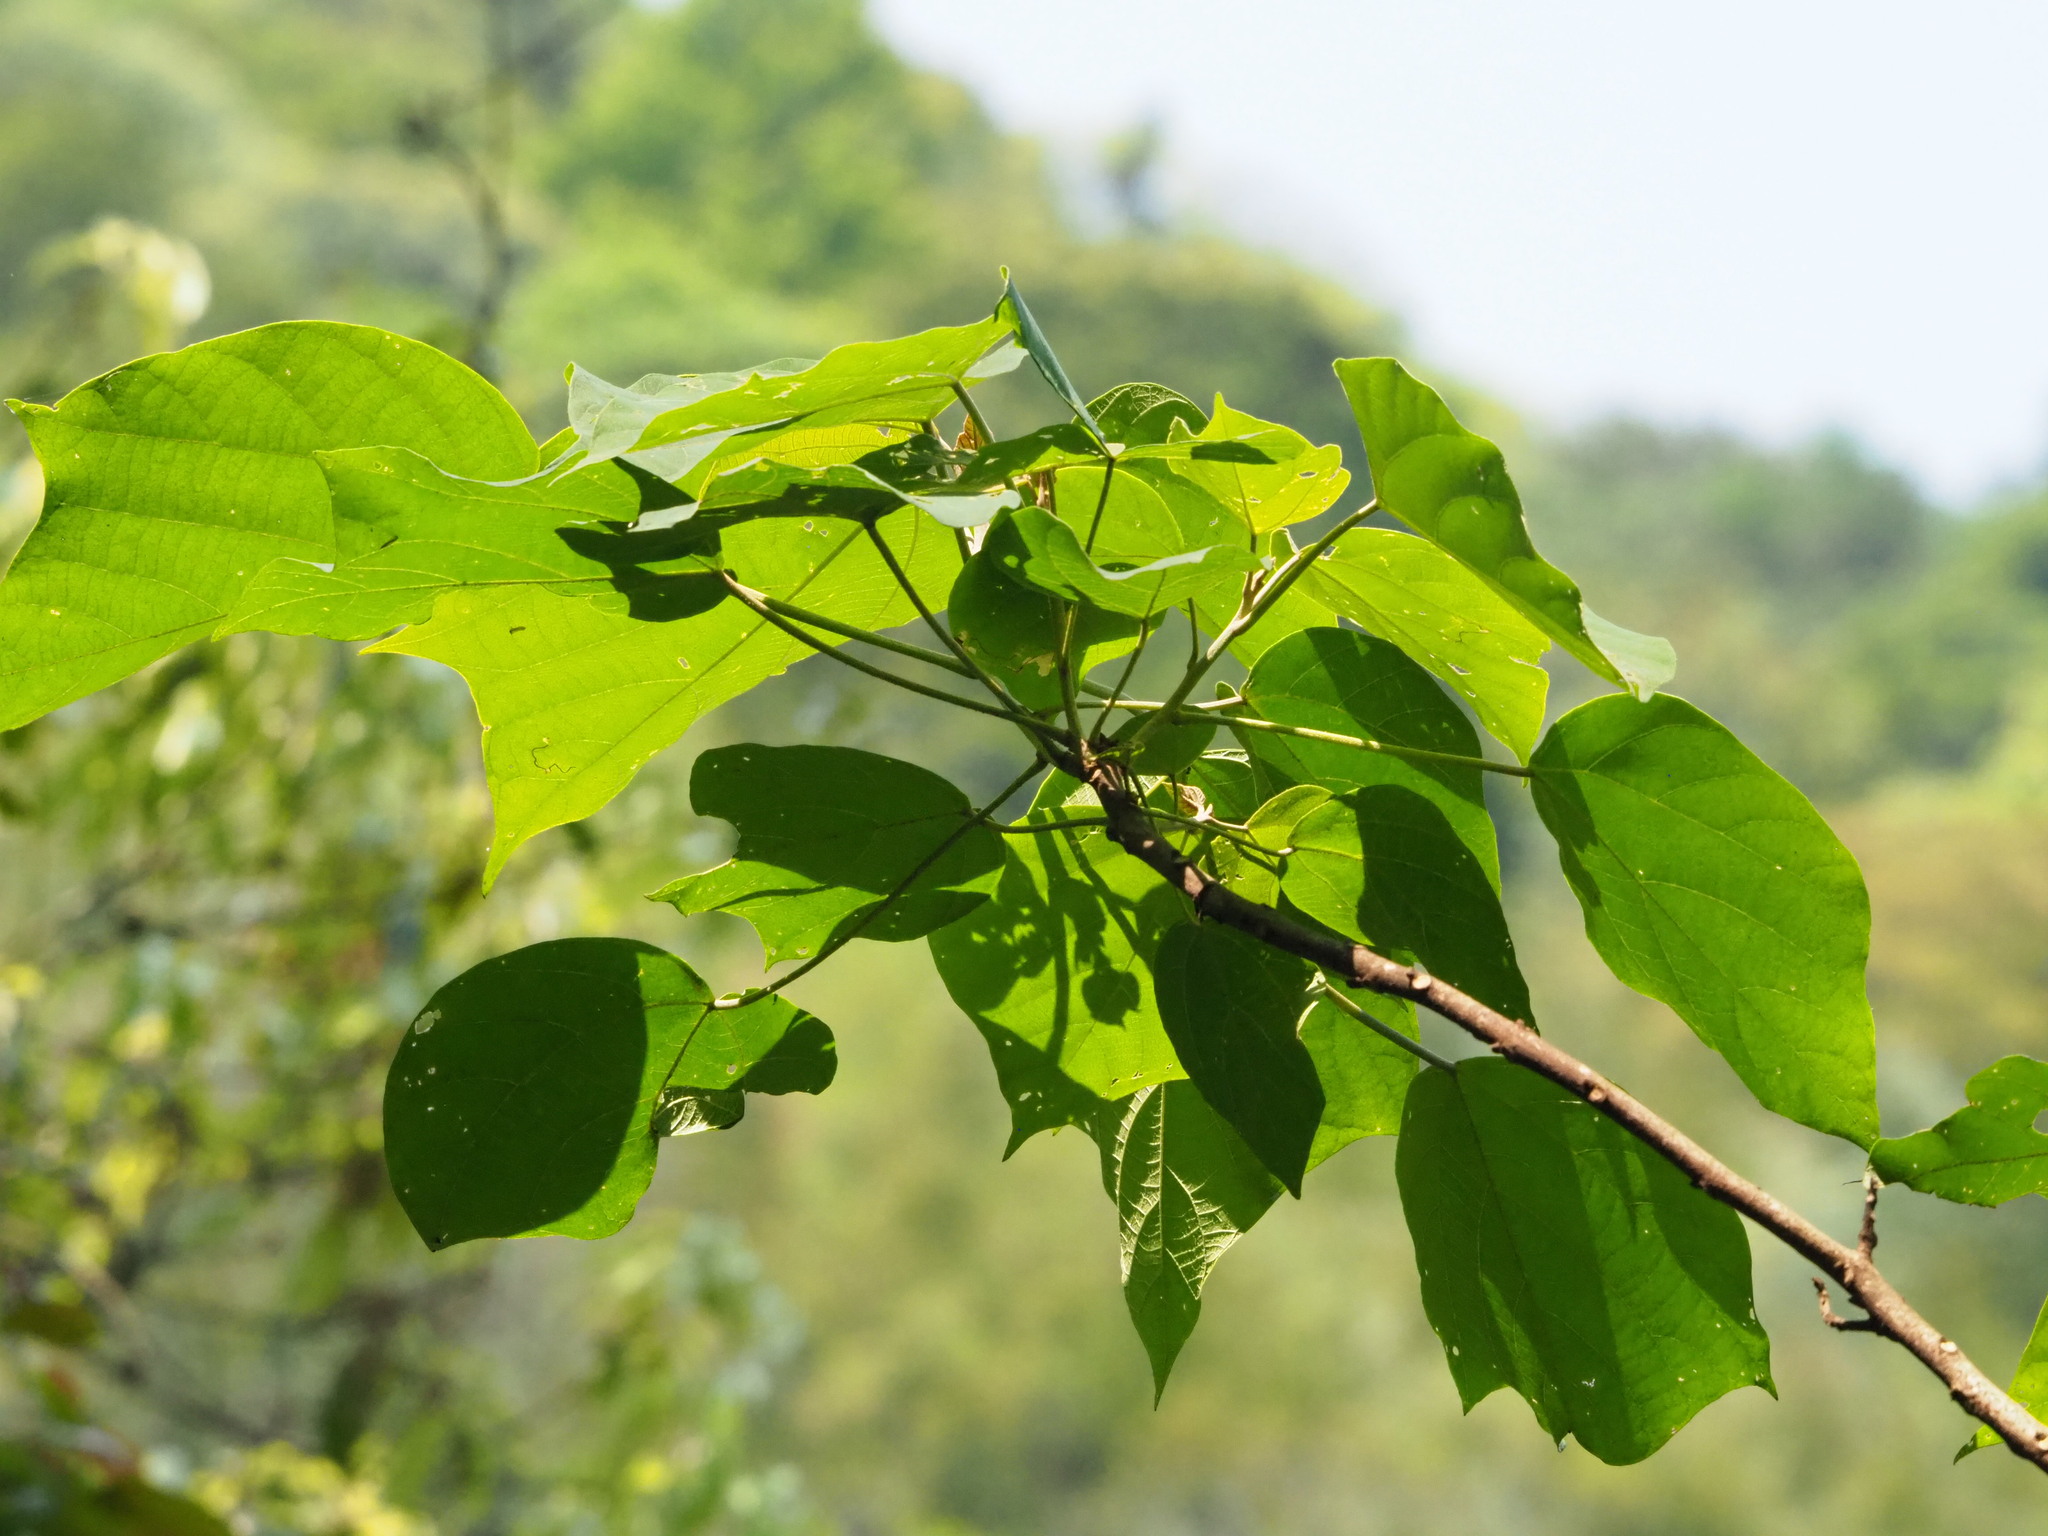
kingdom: Plantae
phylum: Tracheophyta
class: Magnoliopsida
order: Malpighiales
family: Euphorbiaceae
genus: Mallotus
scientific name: Mallotus japonicus
